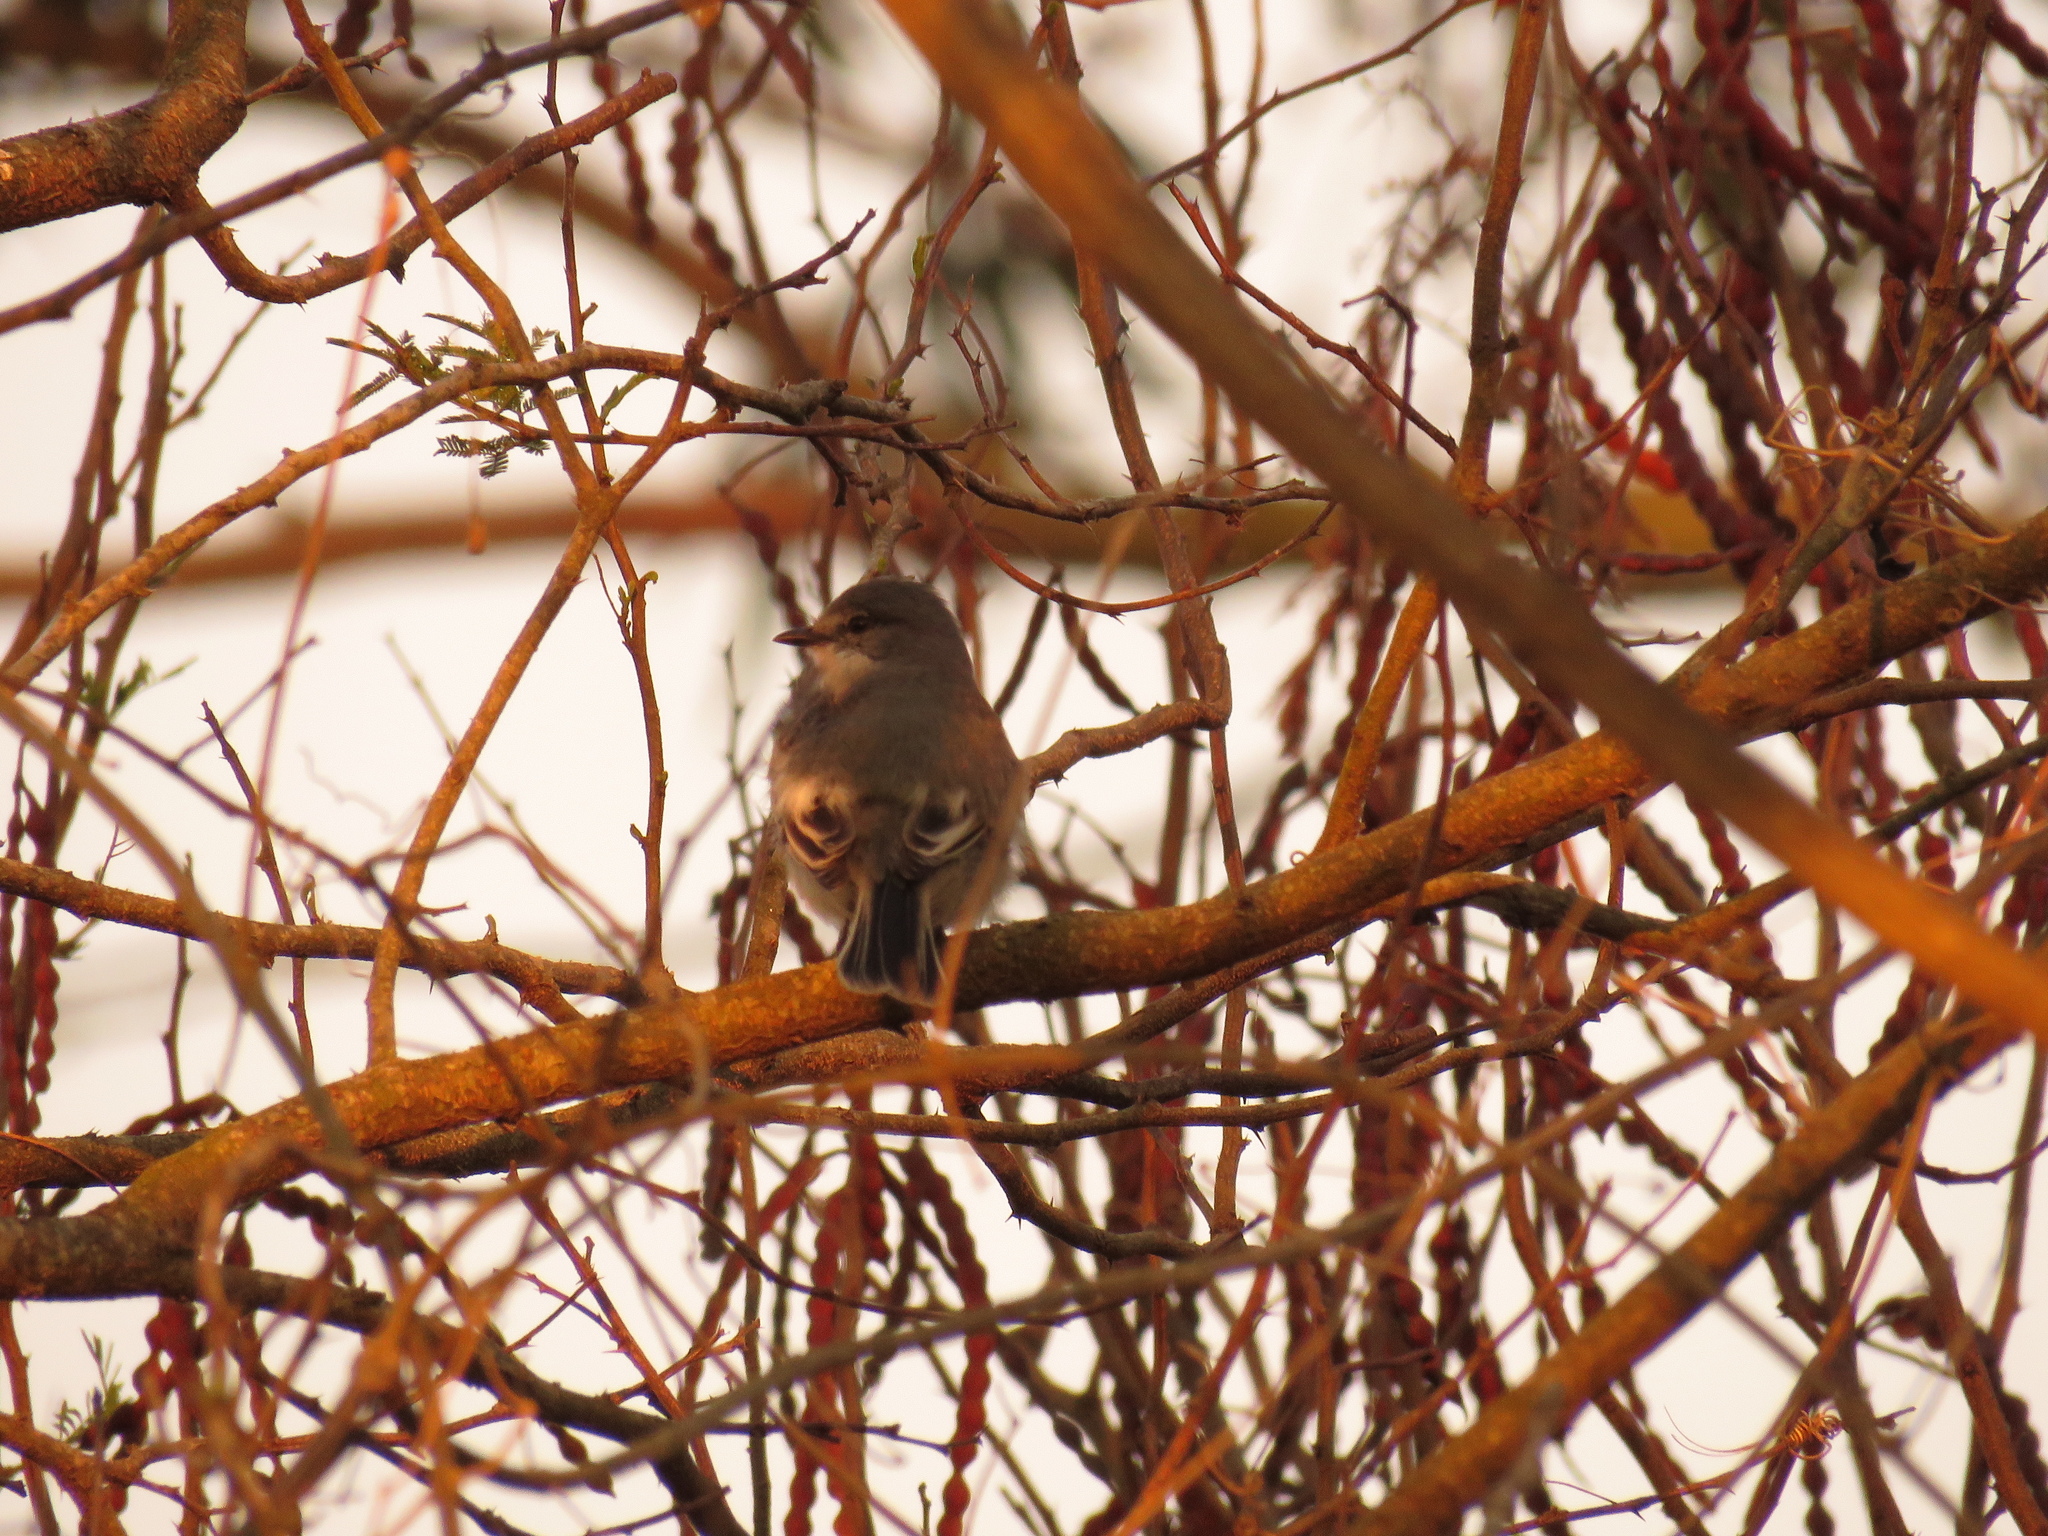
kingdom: Animalia
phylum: Chordata
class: Aves
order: Passeriformes
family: Tyrannidae
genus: Suiriri
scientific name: Suiriri suiriri
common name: Suiriri flycatcher
